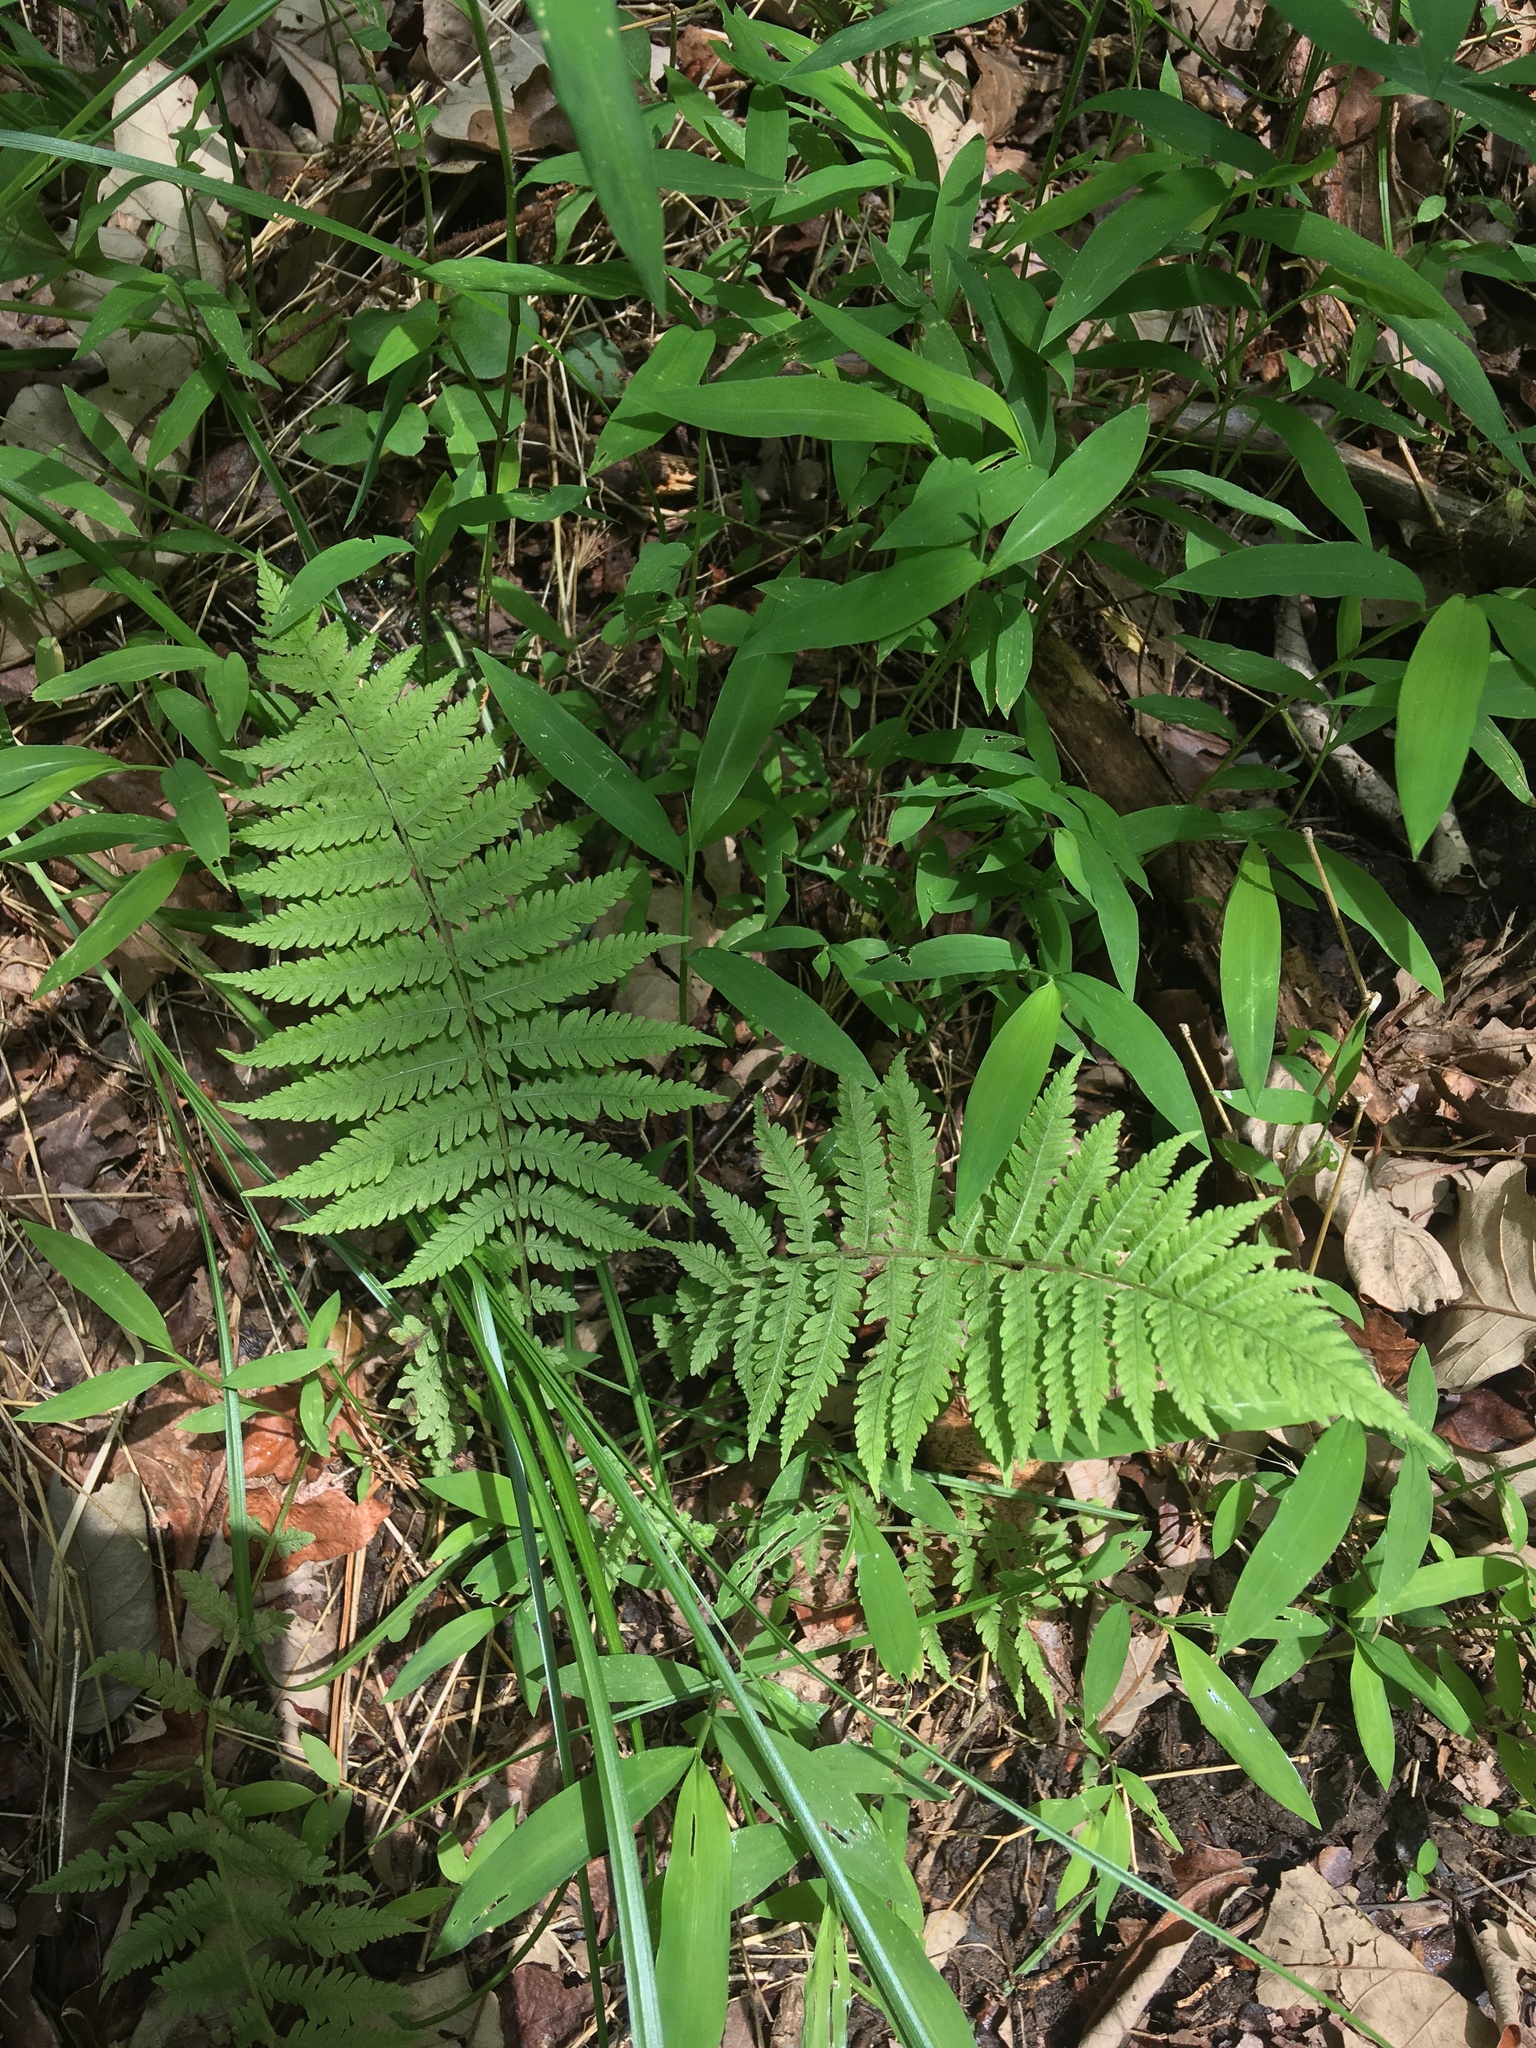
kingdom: Plantae
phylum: Tracheophyta
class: Polypodiopsida
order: Polypodiales
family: Thelypteridaceae
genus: Amauropelta
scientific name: Amauropelta noveboracensis
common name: New york fern
